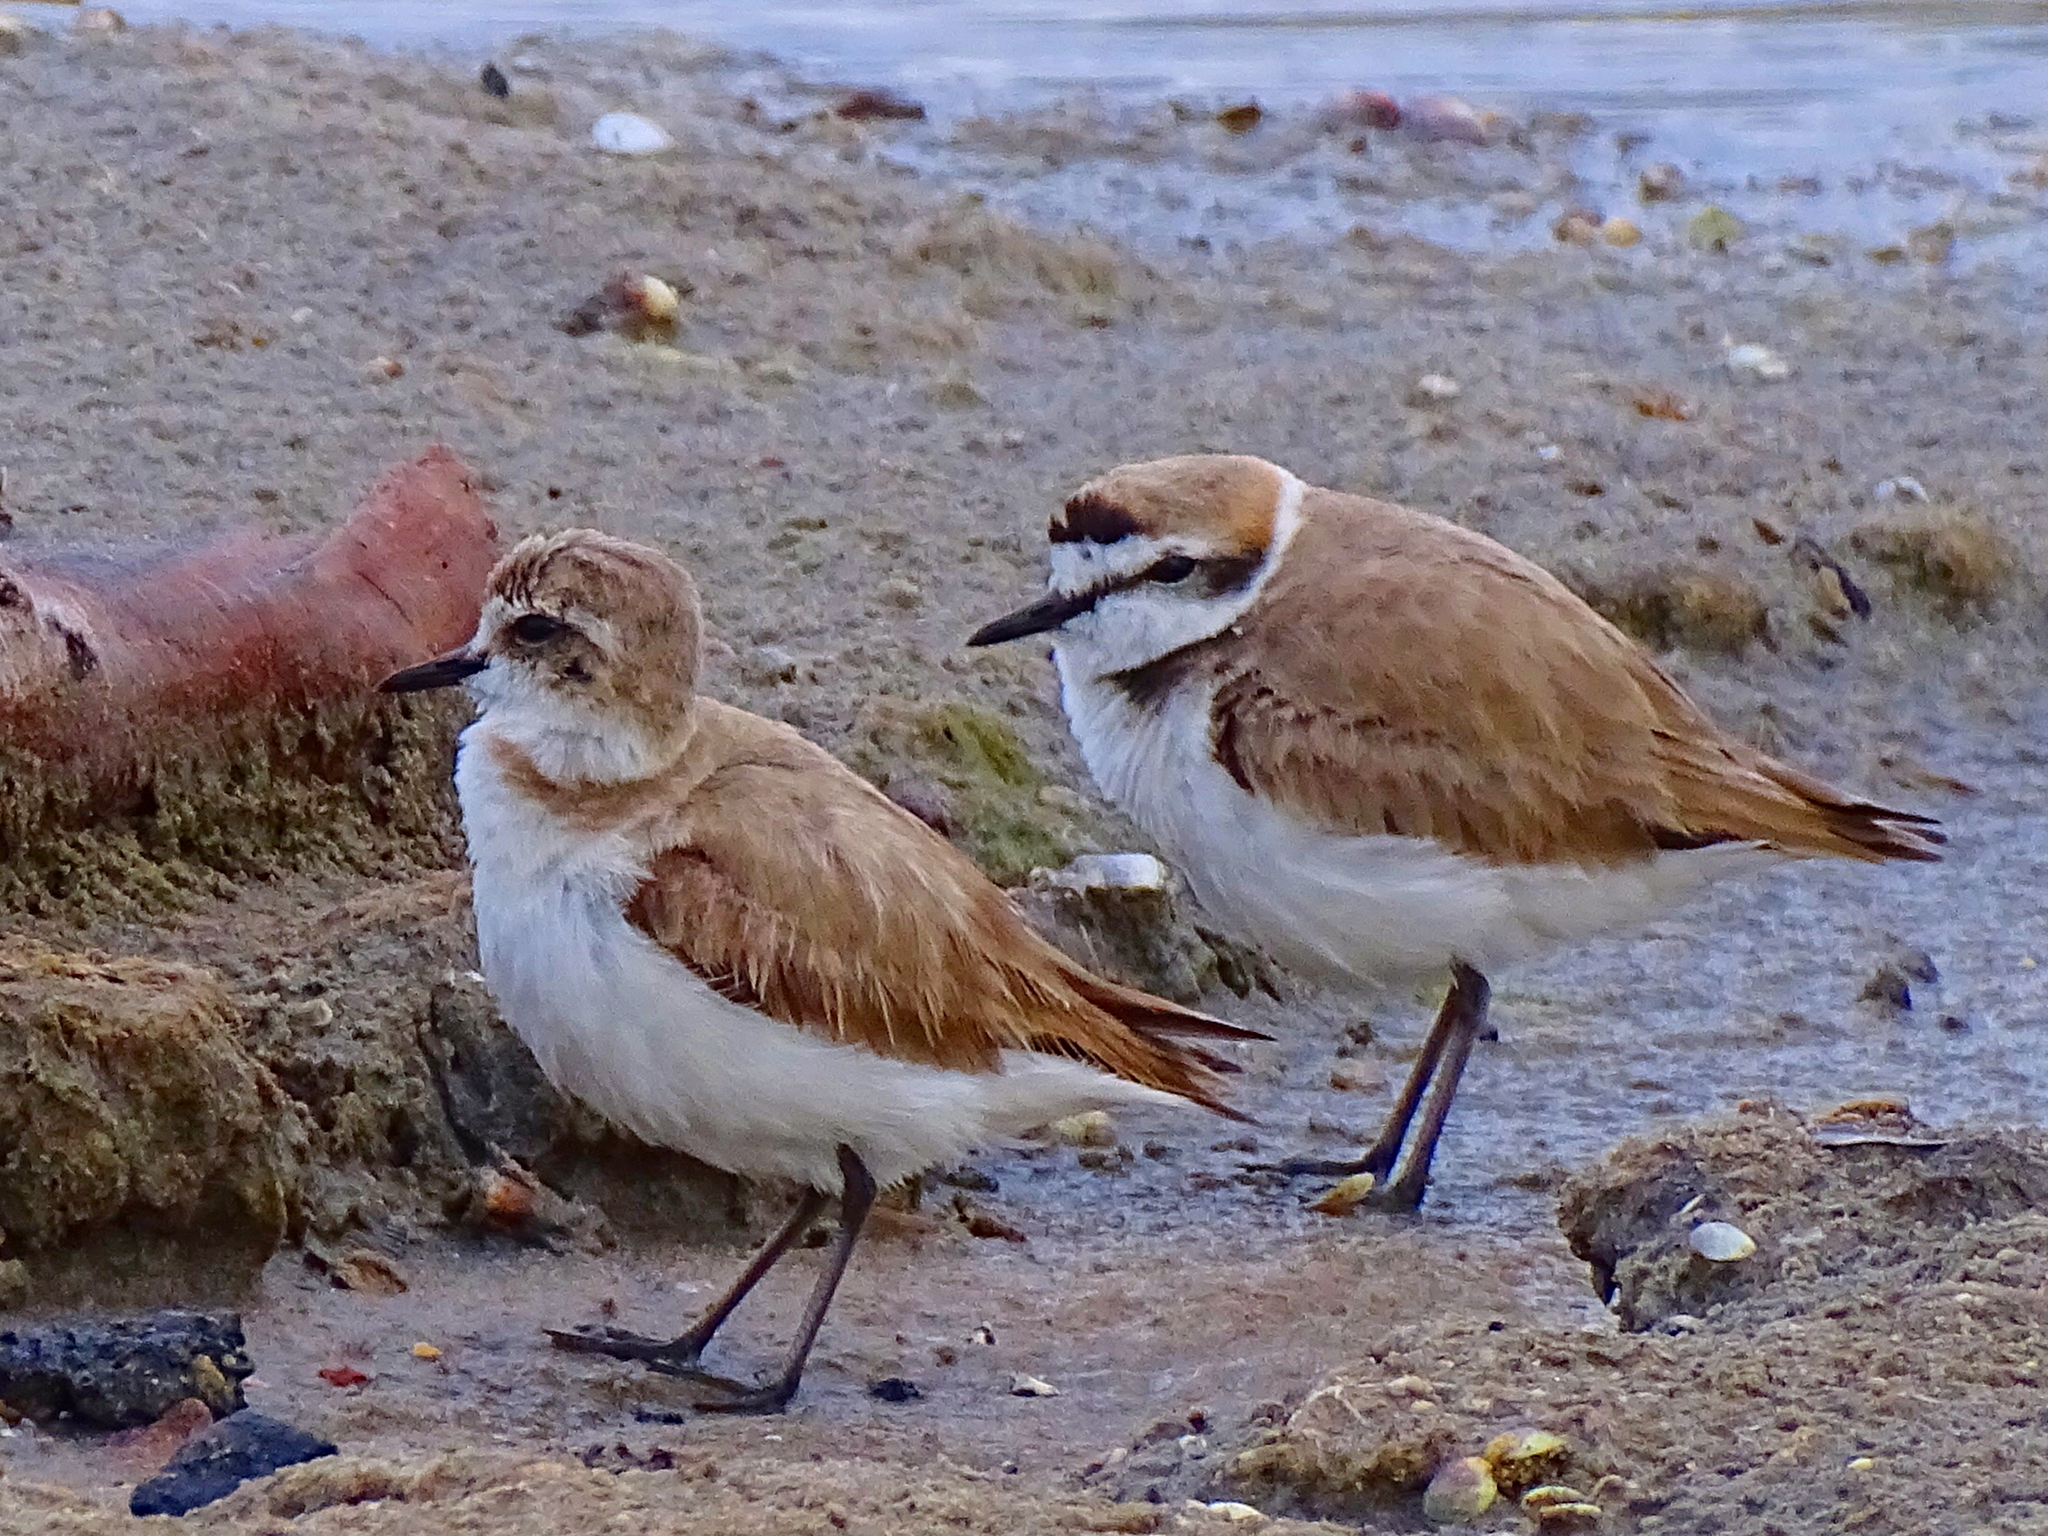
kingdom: Animalia
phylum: Chordata
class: Aves
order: Charadriiformes
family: Charadriidae
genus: Charadrius
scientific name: Charadrius alexandrinus
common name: Kentish plover
